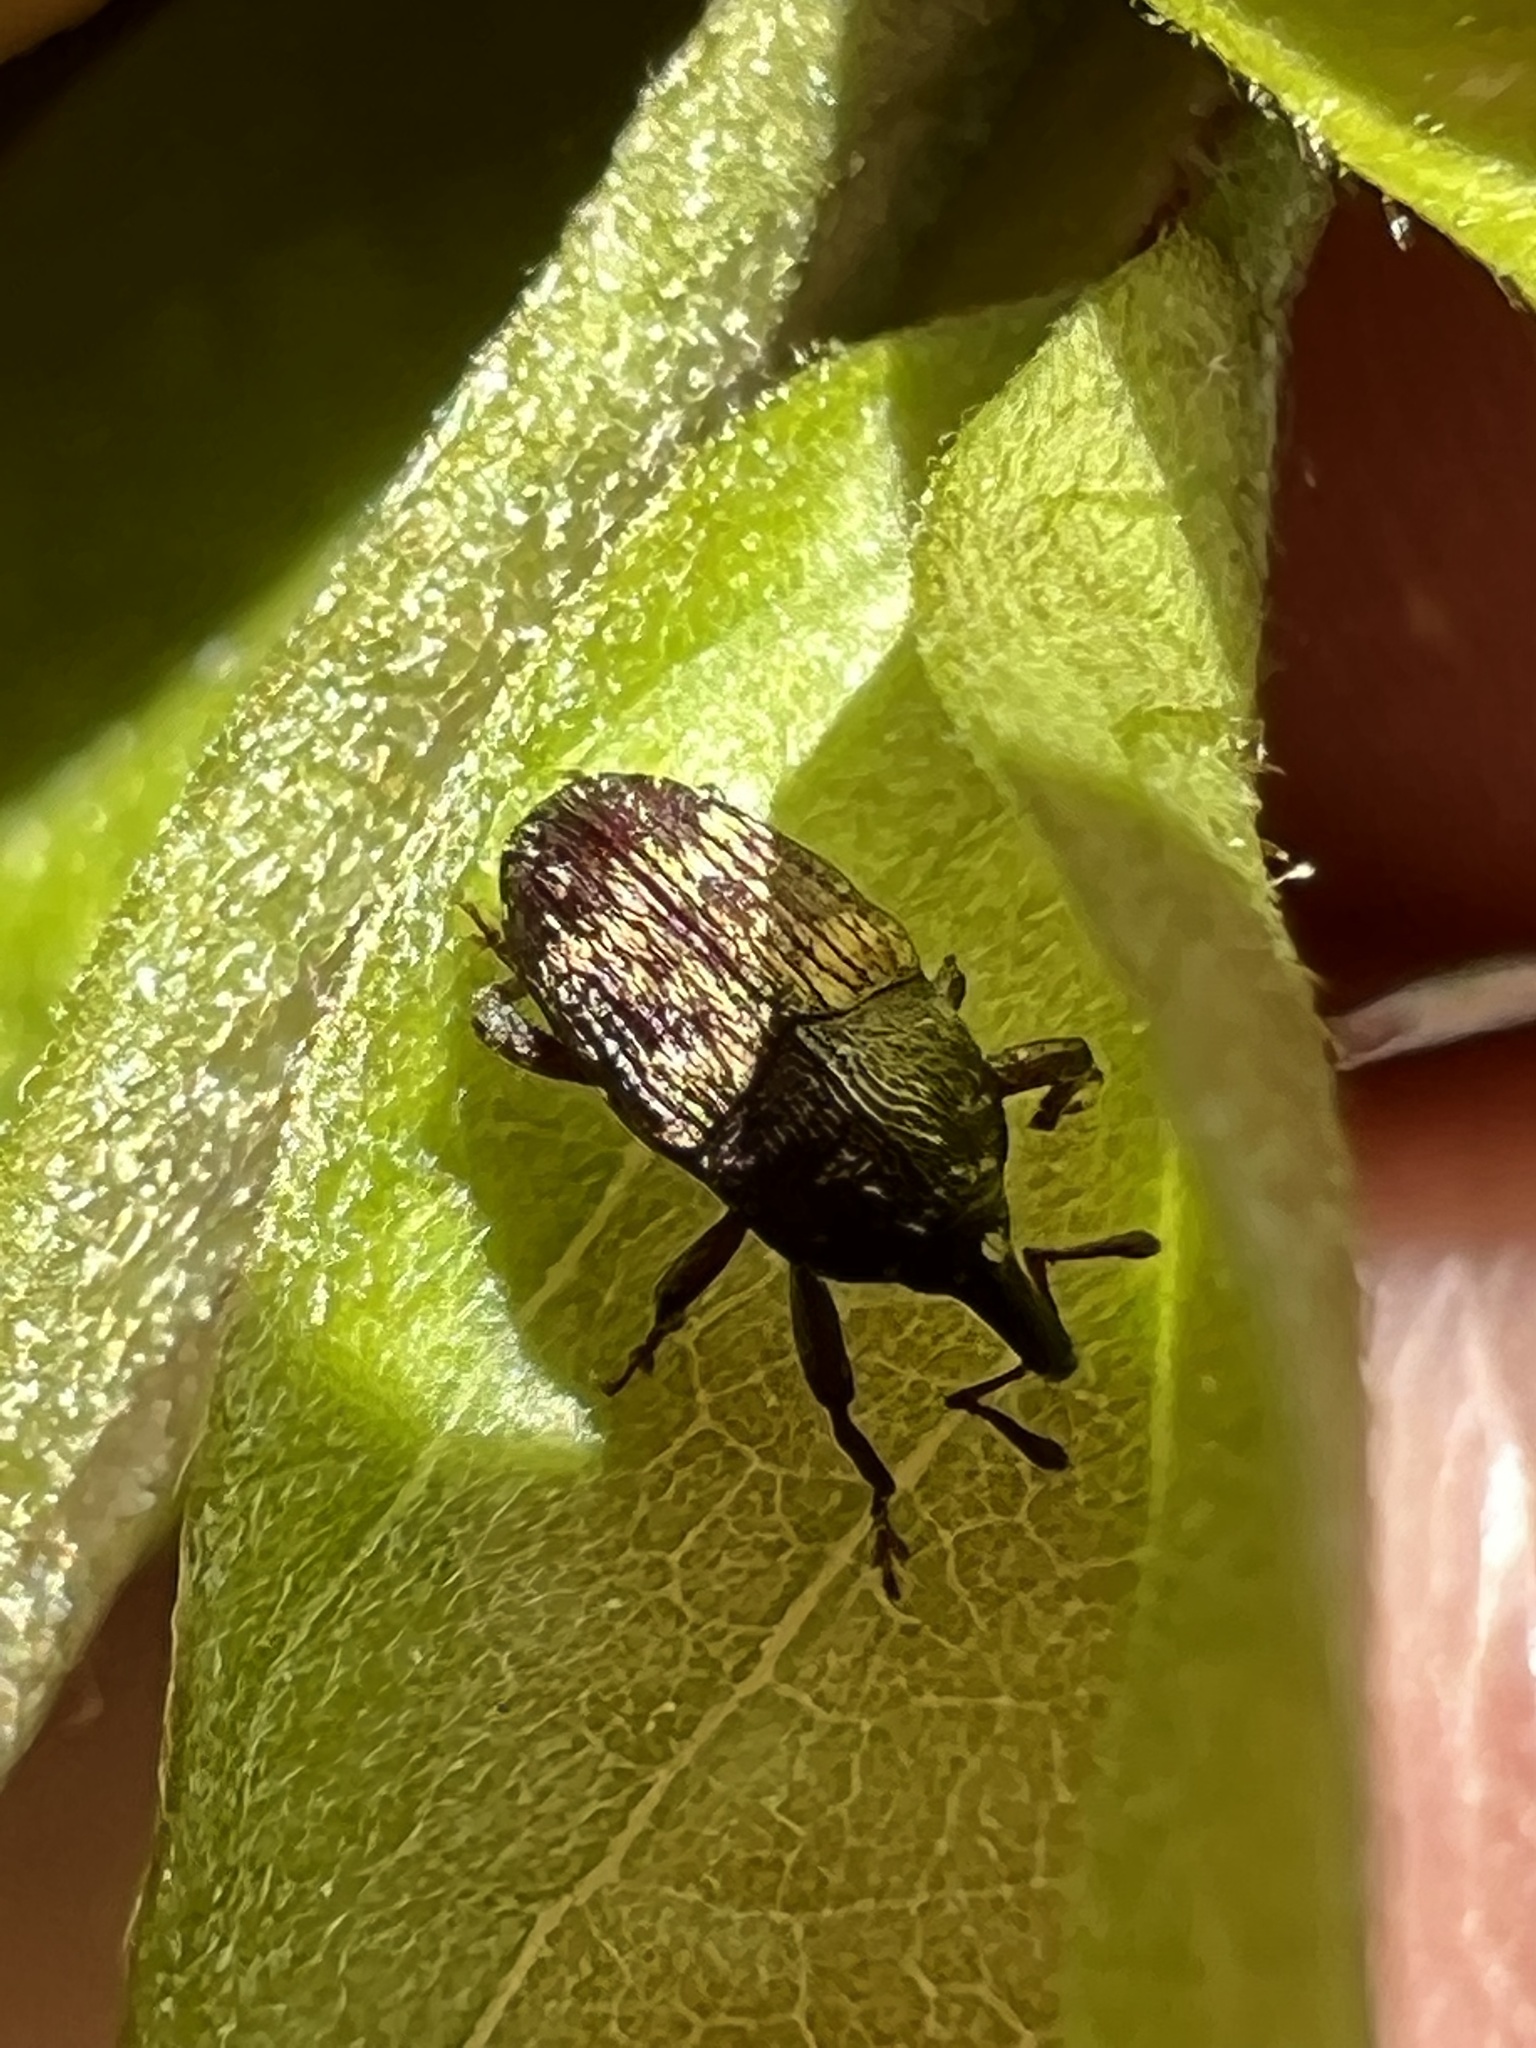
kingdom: Animalia
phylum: Arthropoda
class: Insecta
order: Coleoptera
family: Curculionidae
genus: Glyptobaris
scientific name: Glyptobaris lecontei
